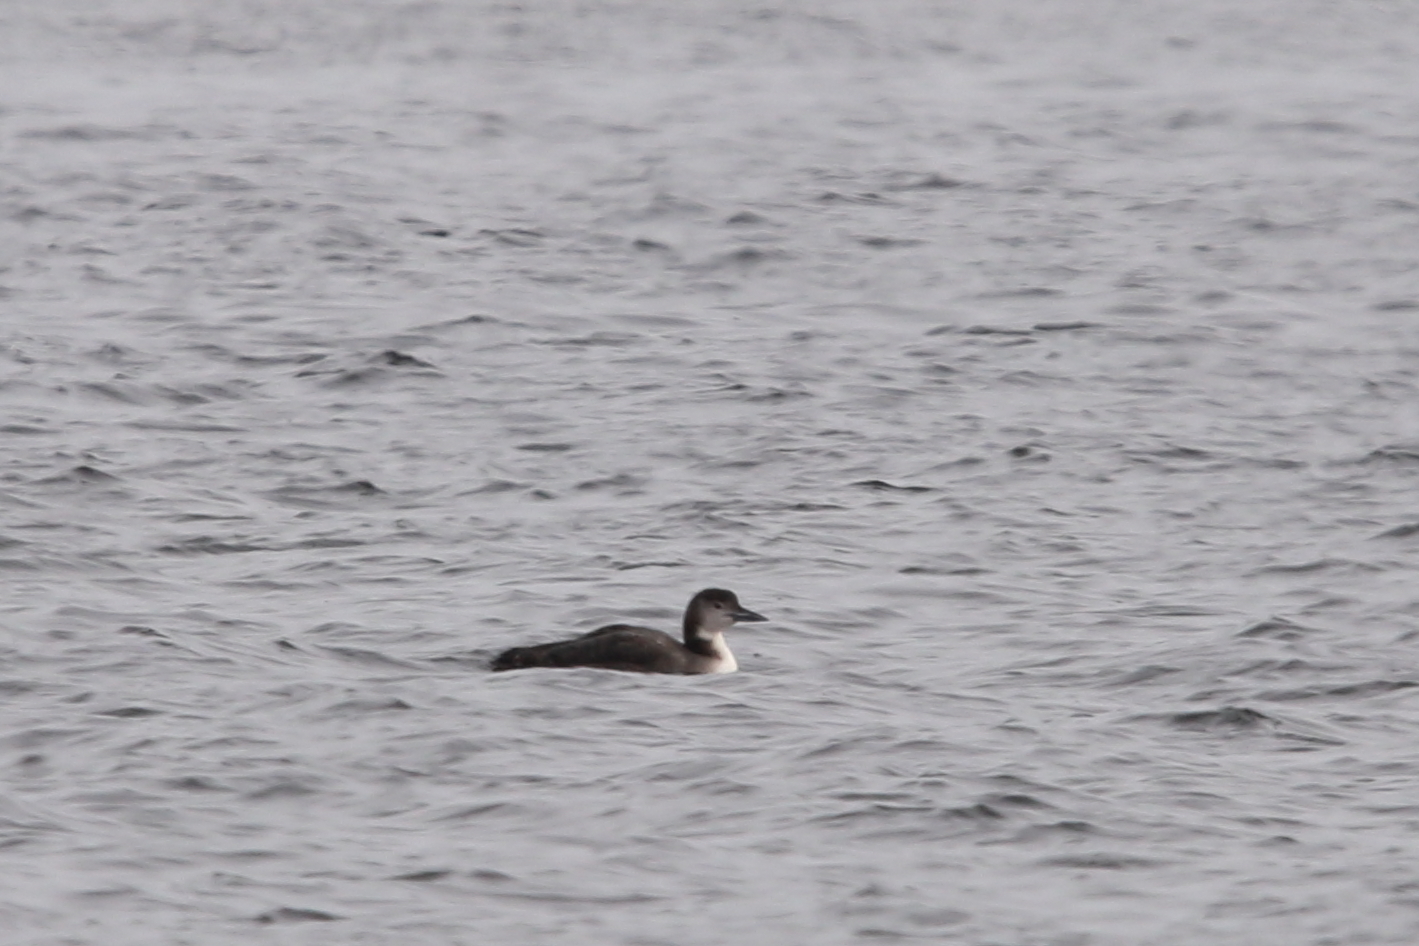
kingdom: Animalia
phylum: Chordata
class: Aves
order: Gaviiformes
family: Gaviidae
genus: Gavia
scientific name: Gavia immer
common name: Common loon
